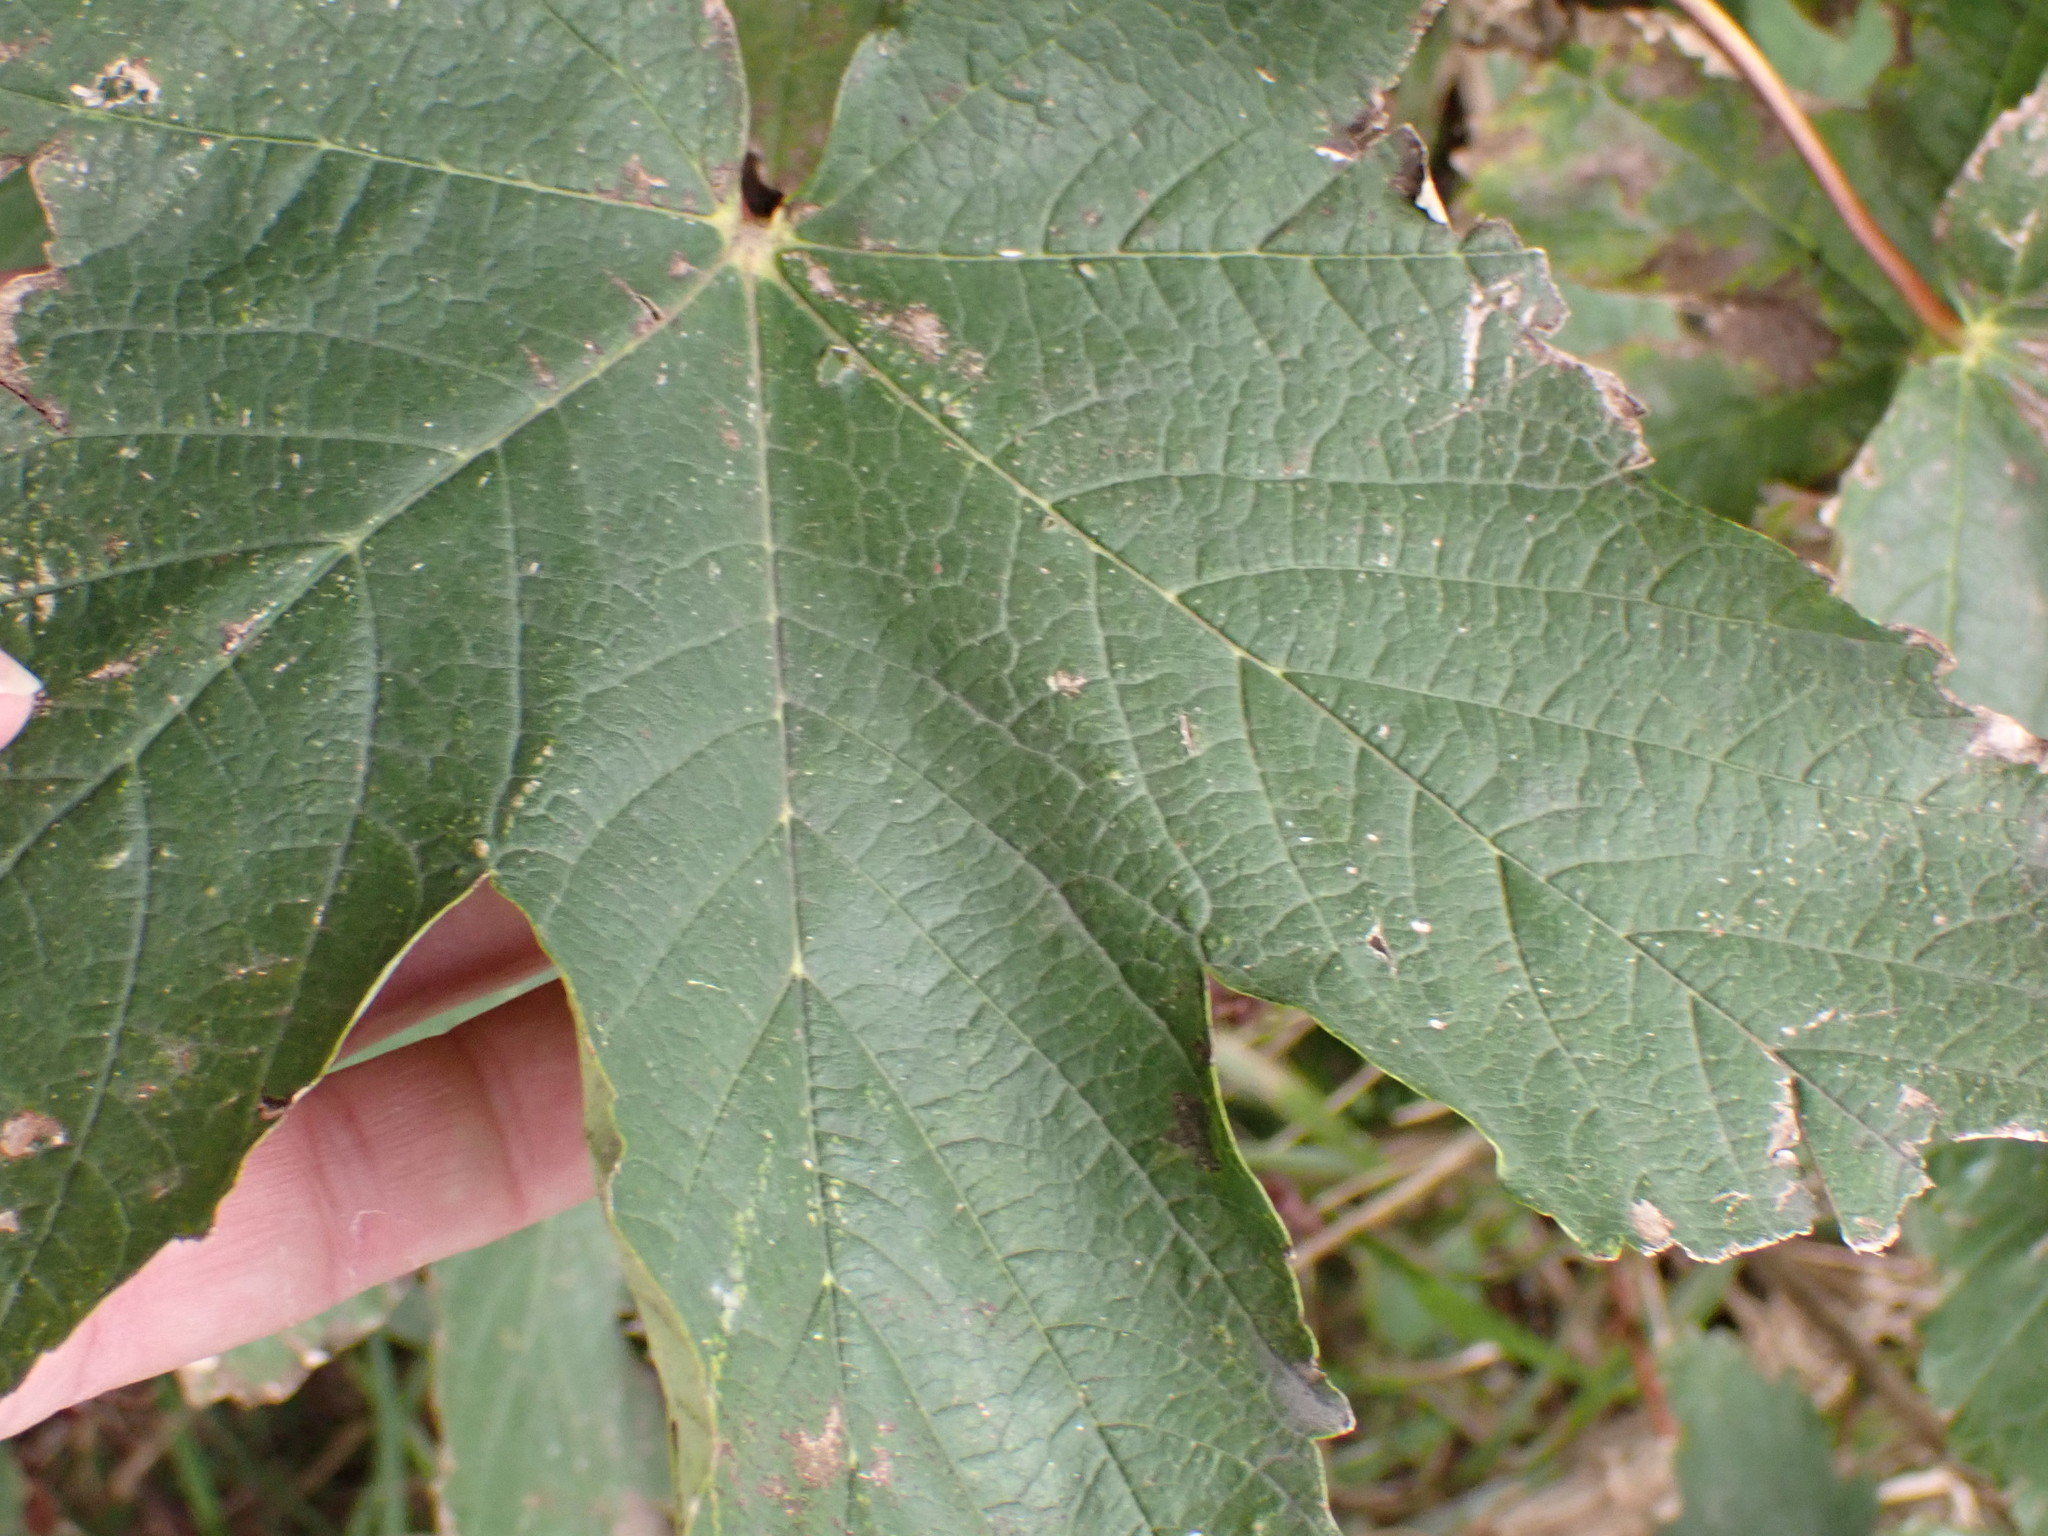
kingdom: Plantae
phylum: Tracheophyta
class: Magnoliopsida
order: Sapindales
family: Sapindaceae
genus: Acer
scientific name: Acer pseudoplatanus
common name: Sycamore
